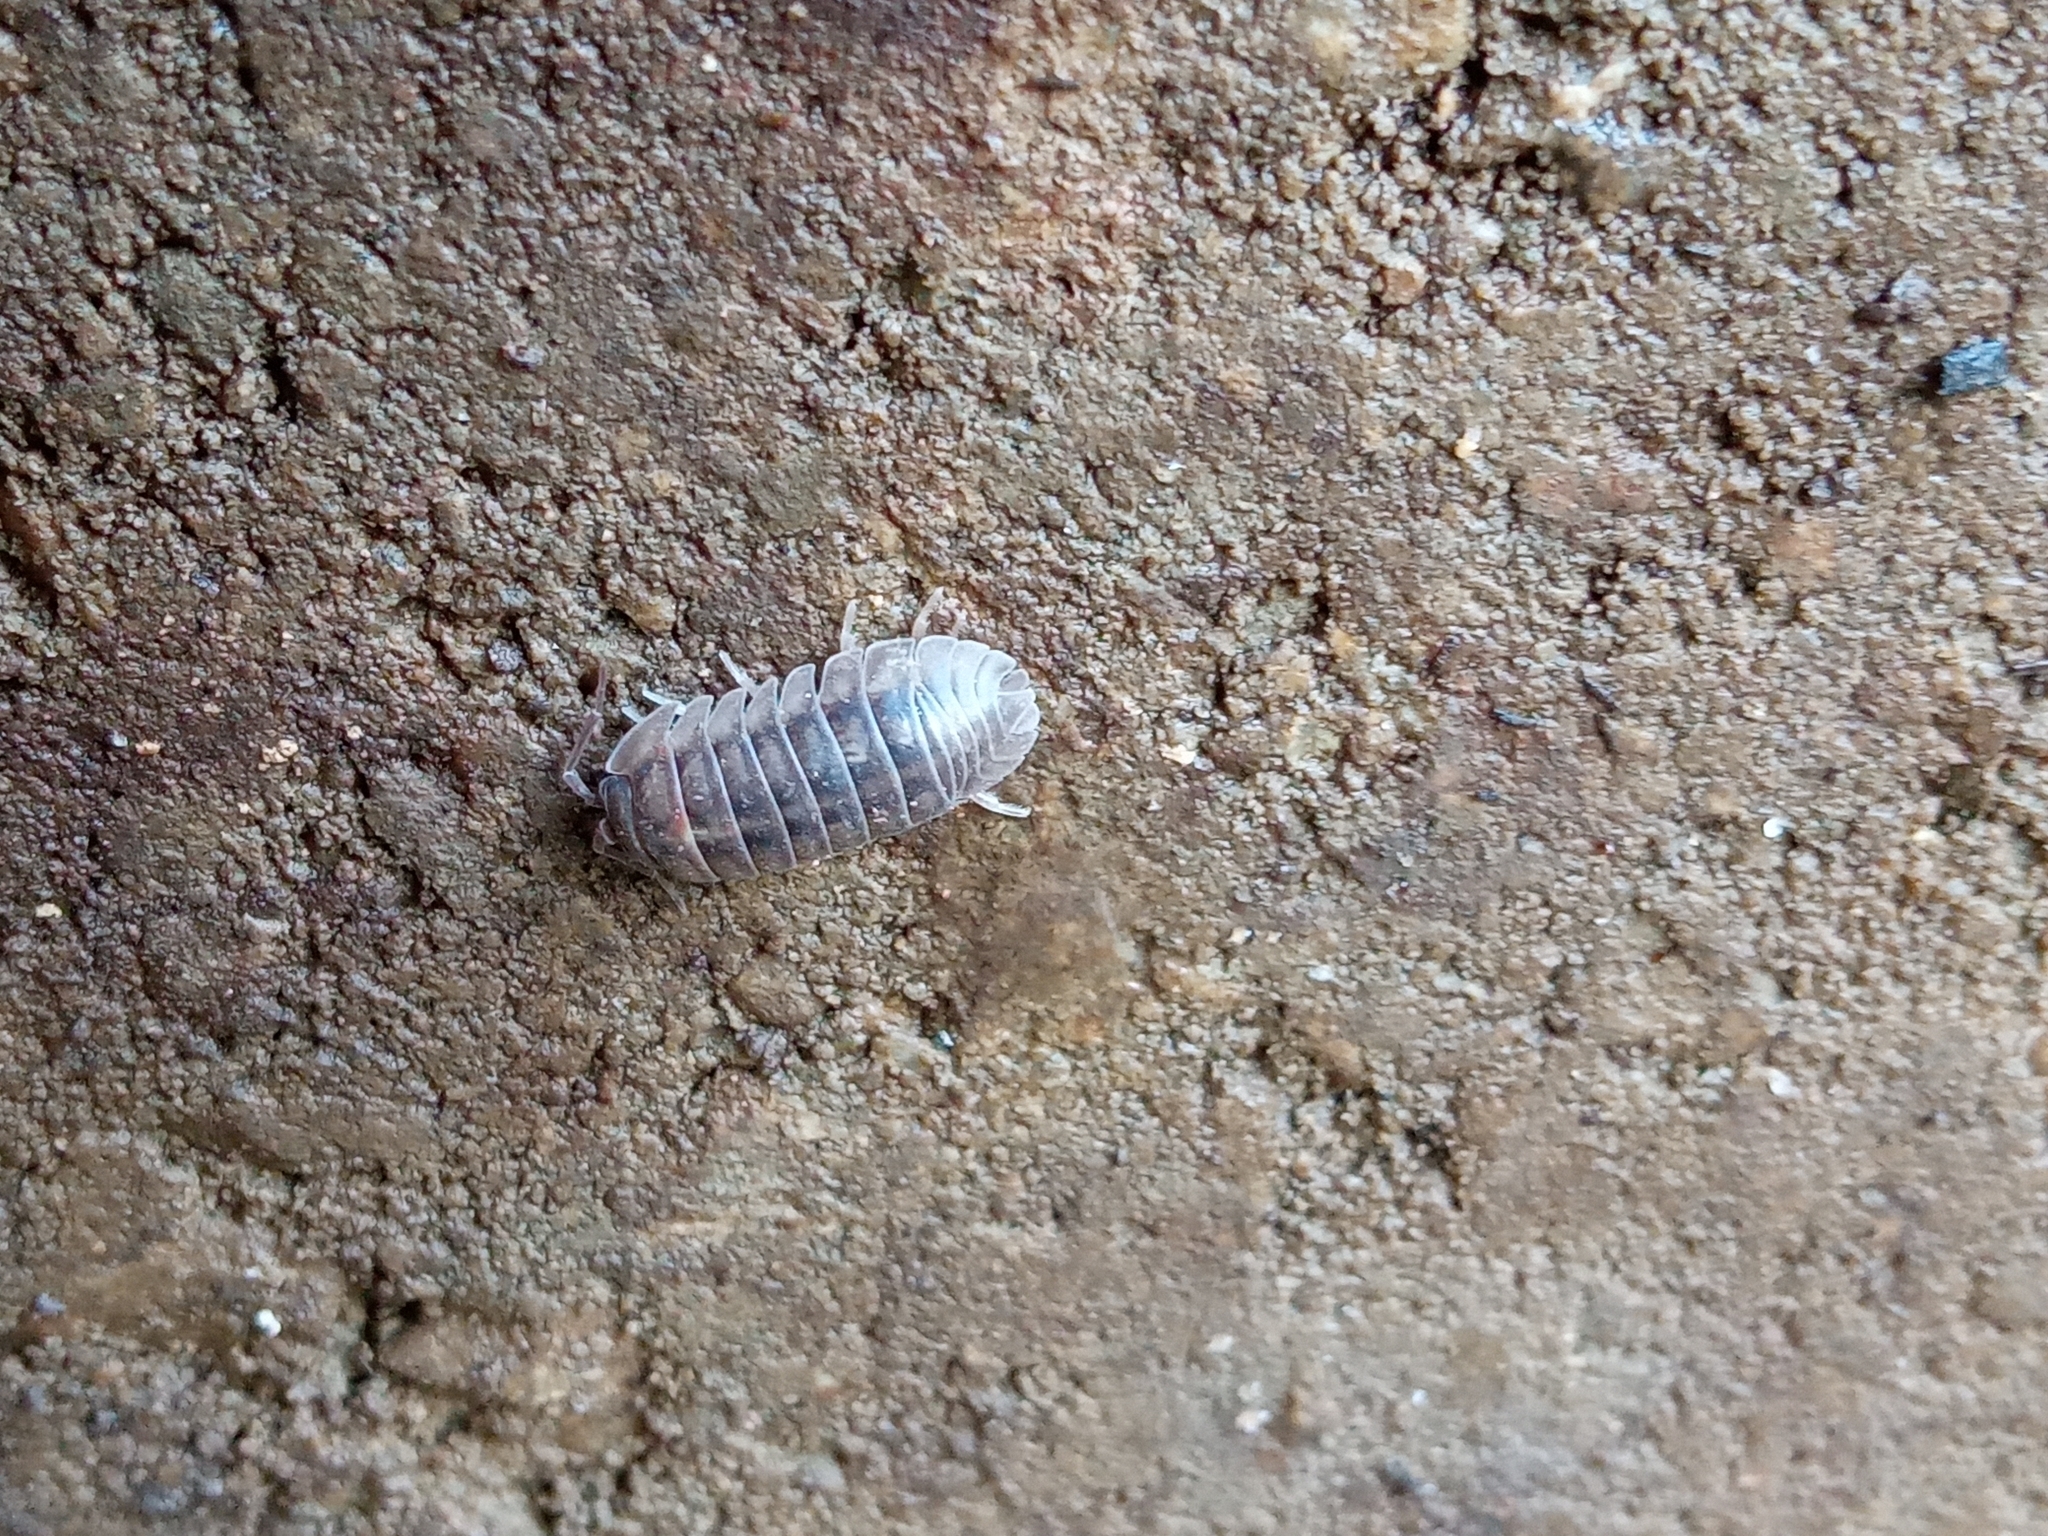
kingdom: Animalia
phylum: Arthropoda
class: Malacostraca
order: Isopoda
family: Armadillidiidae
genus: Armadillidium
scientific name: Armadillidium nasatum
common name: Isopod
